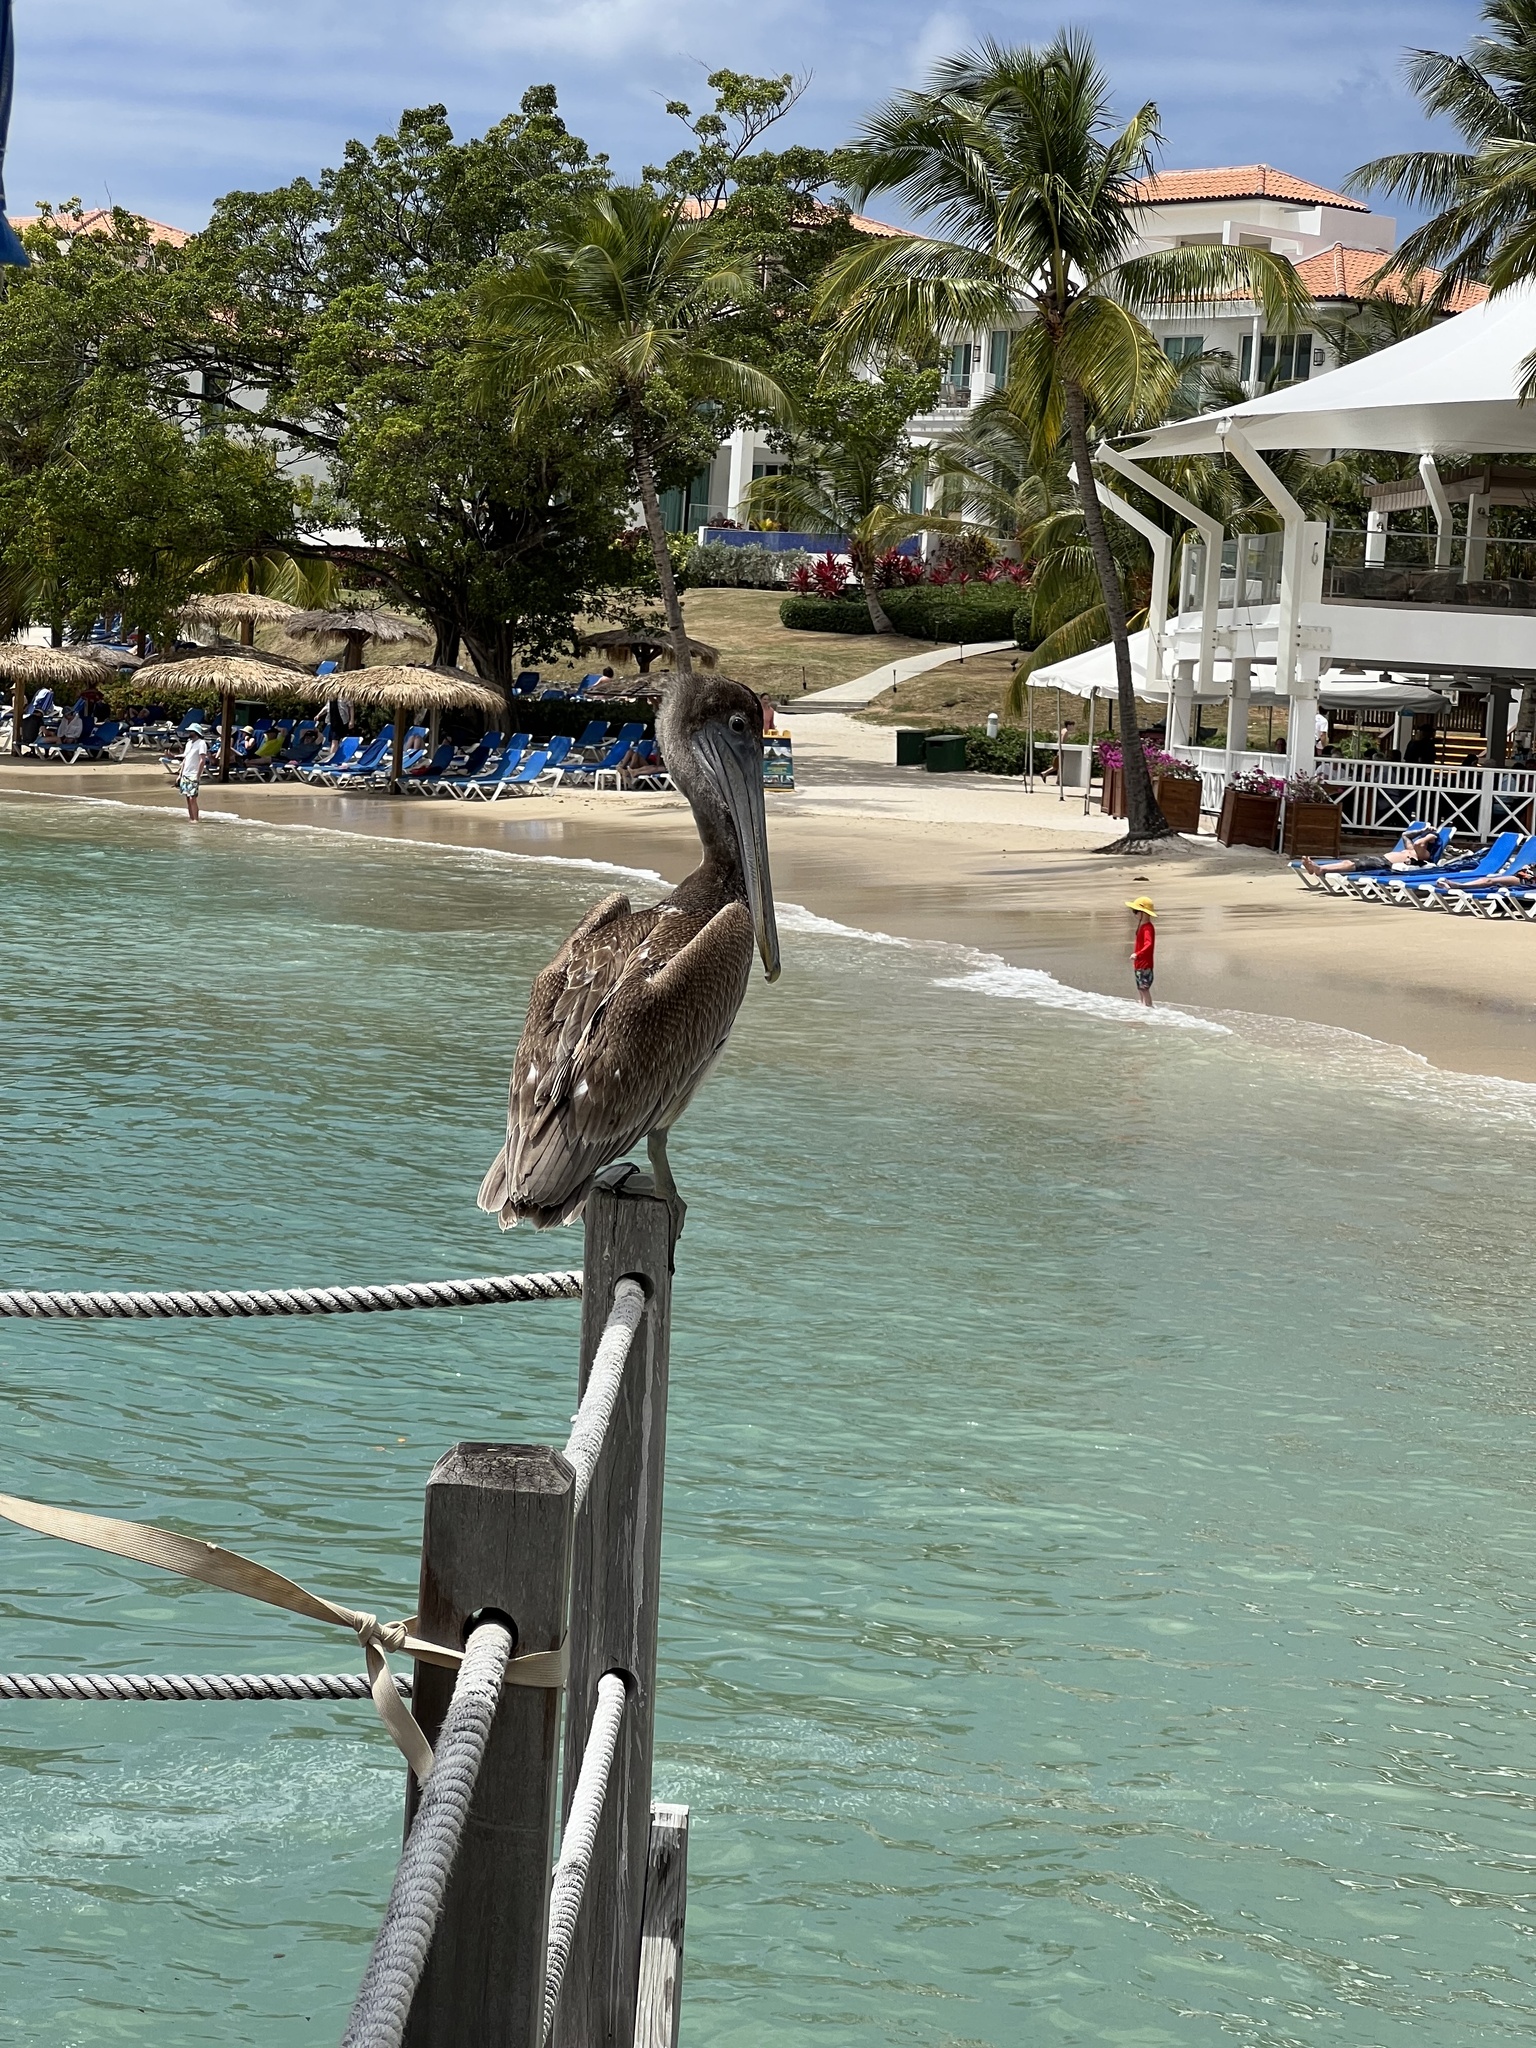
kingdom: Animalia
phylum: Chordata
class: Aves
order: Pelecaniformes
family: Pelecanidae
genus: Pelecanus
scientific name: Pelecanus occidentalis
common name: Brown pelican
